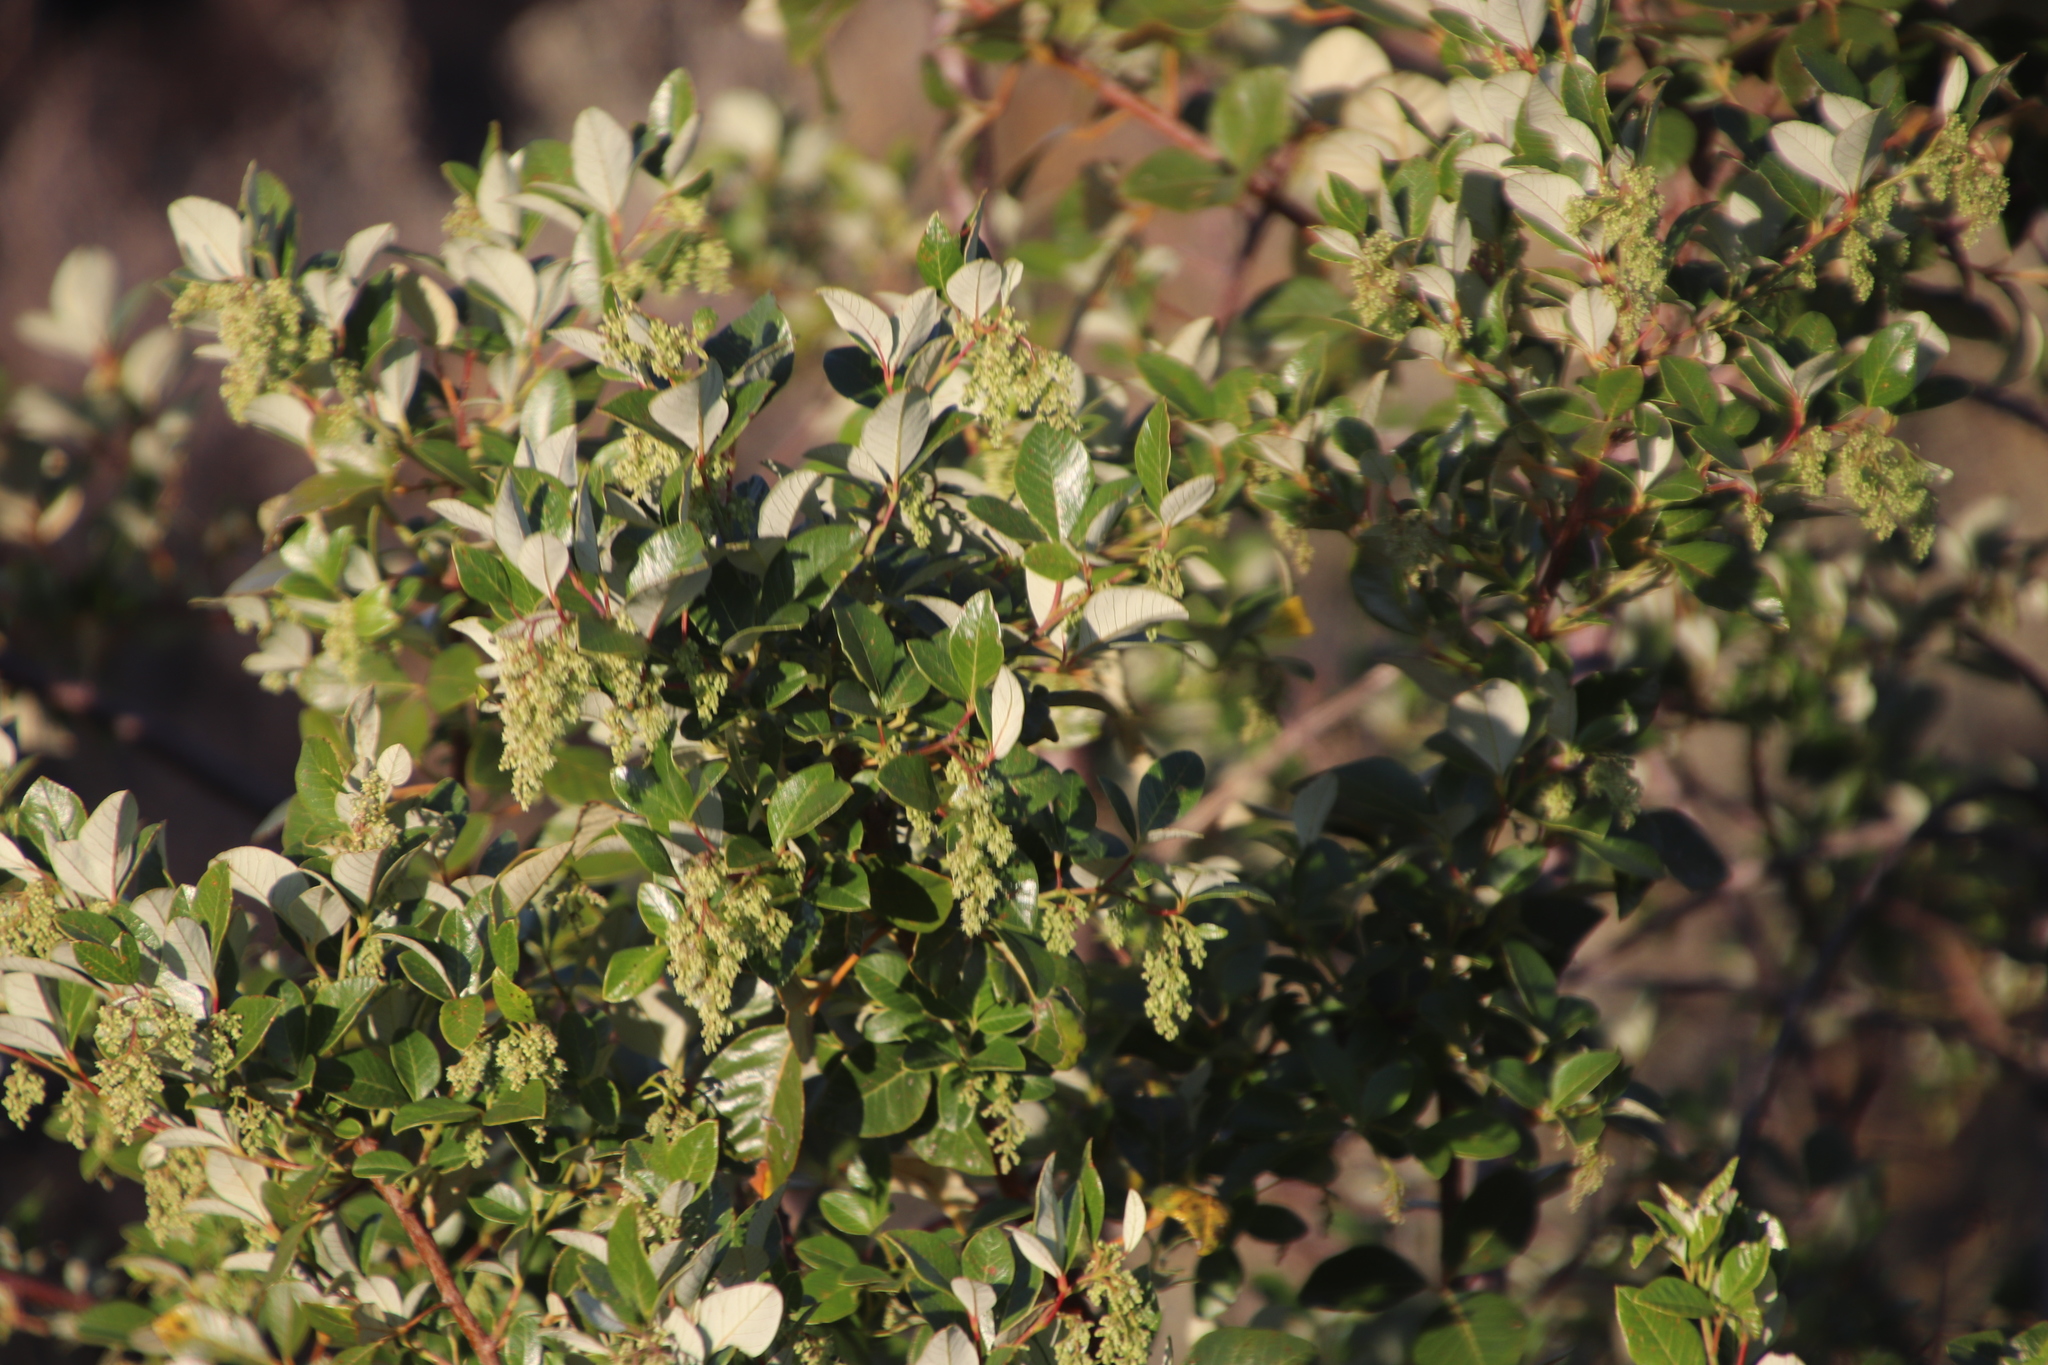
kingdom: Plantae
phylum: Tracheophyta
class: Magnoliopsida
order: Sapindales
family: Anacardiaceae
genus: Searsia
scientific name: Searsia tomentosa
